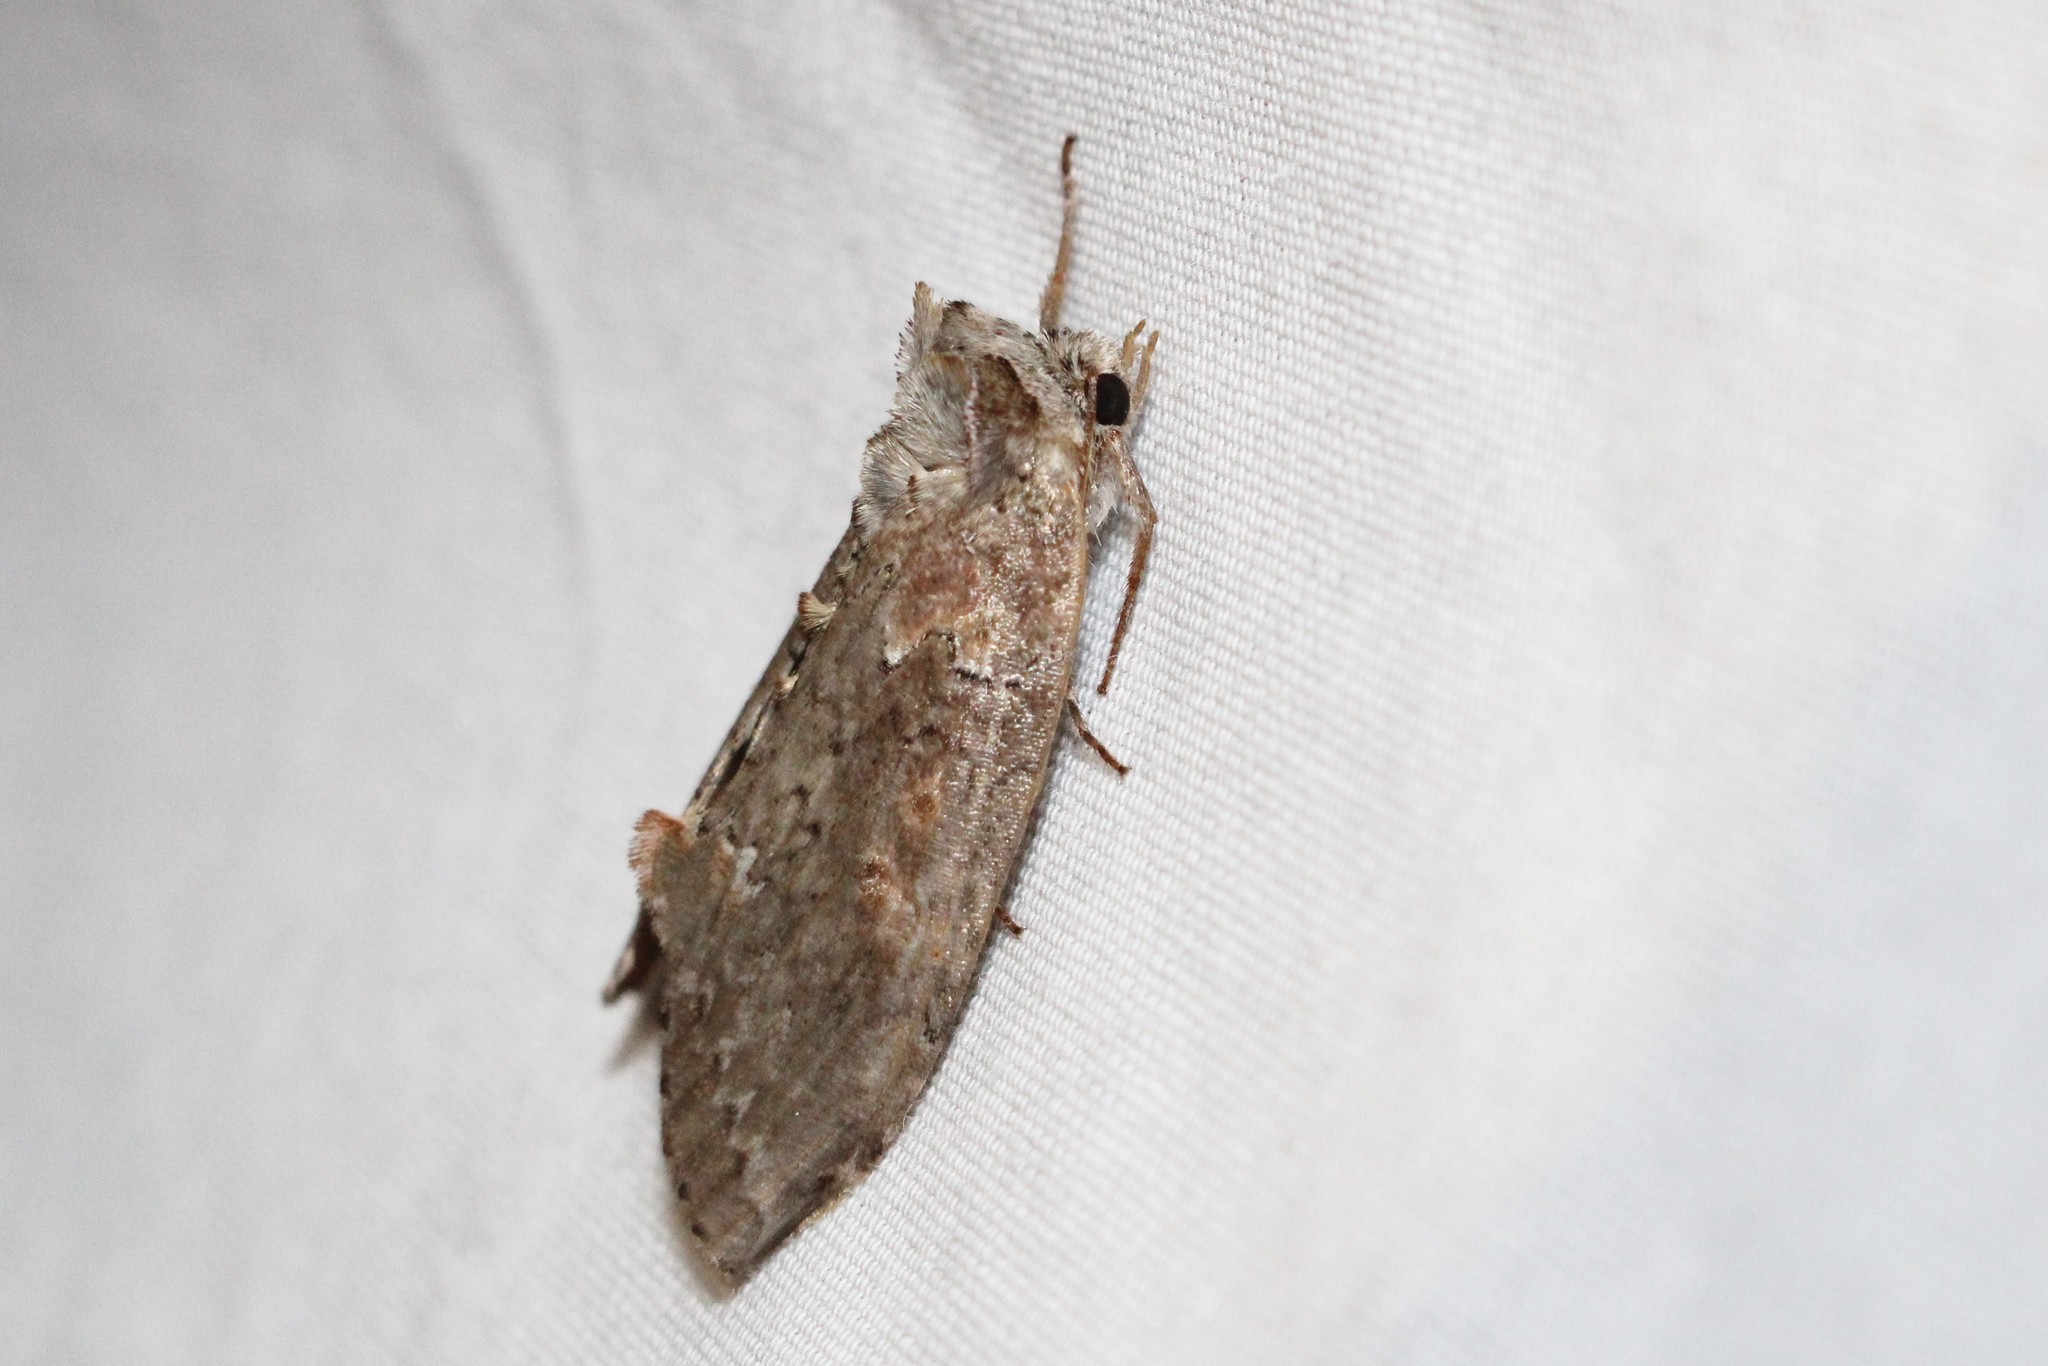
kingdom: Animalia
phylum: Arthropoda
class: Insecta
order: Lepidoptera
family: Drepanidae
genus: Pseudothyatira
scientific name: Pseudothyatira cymatophoroides
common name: Tufted thyatirid moth
